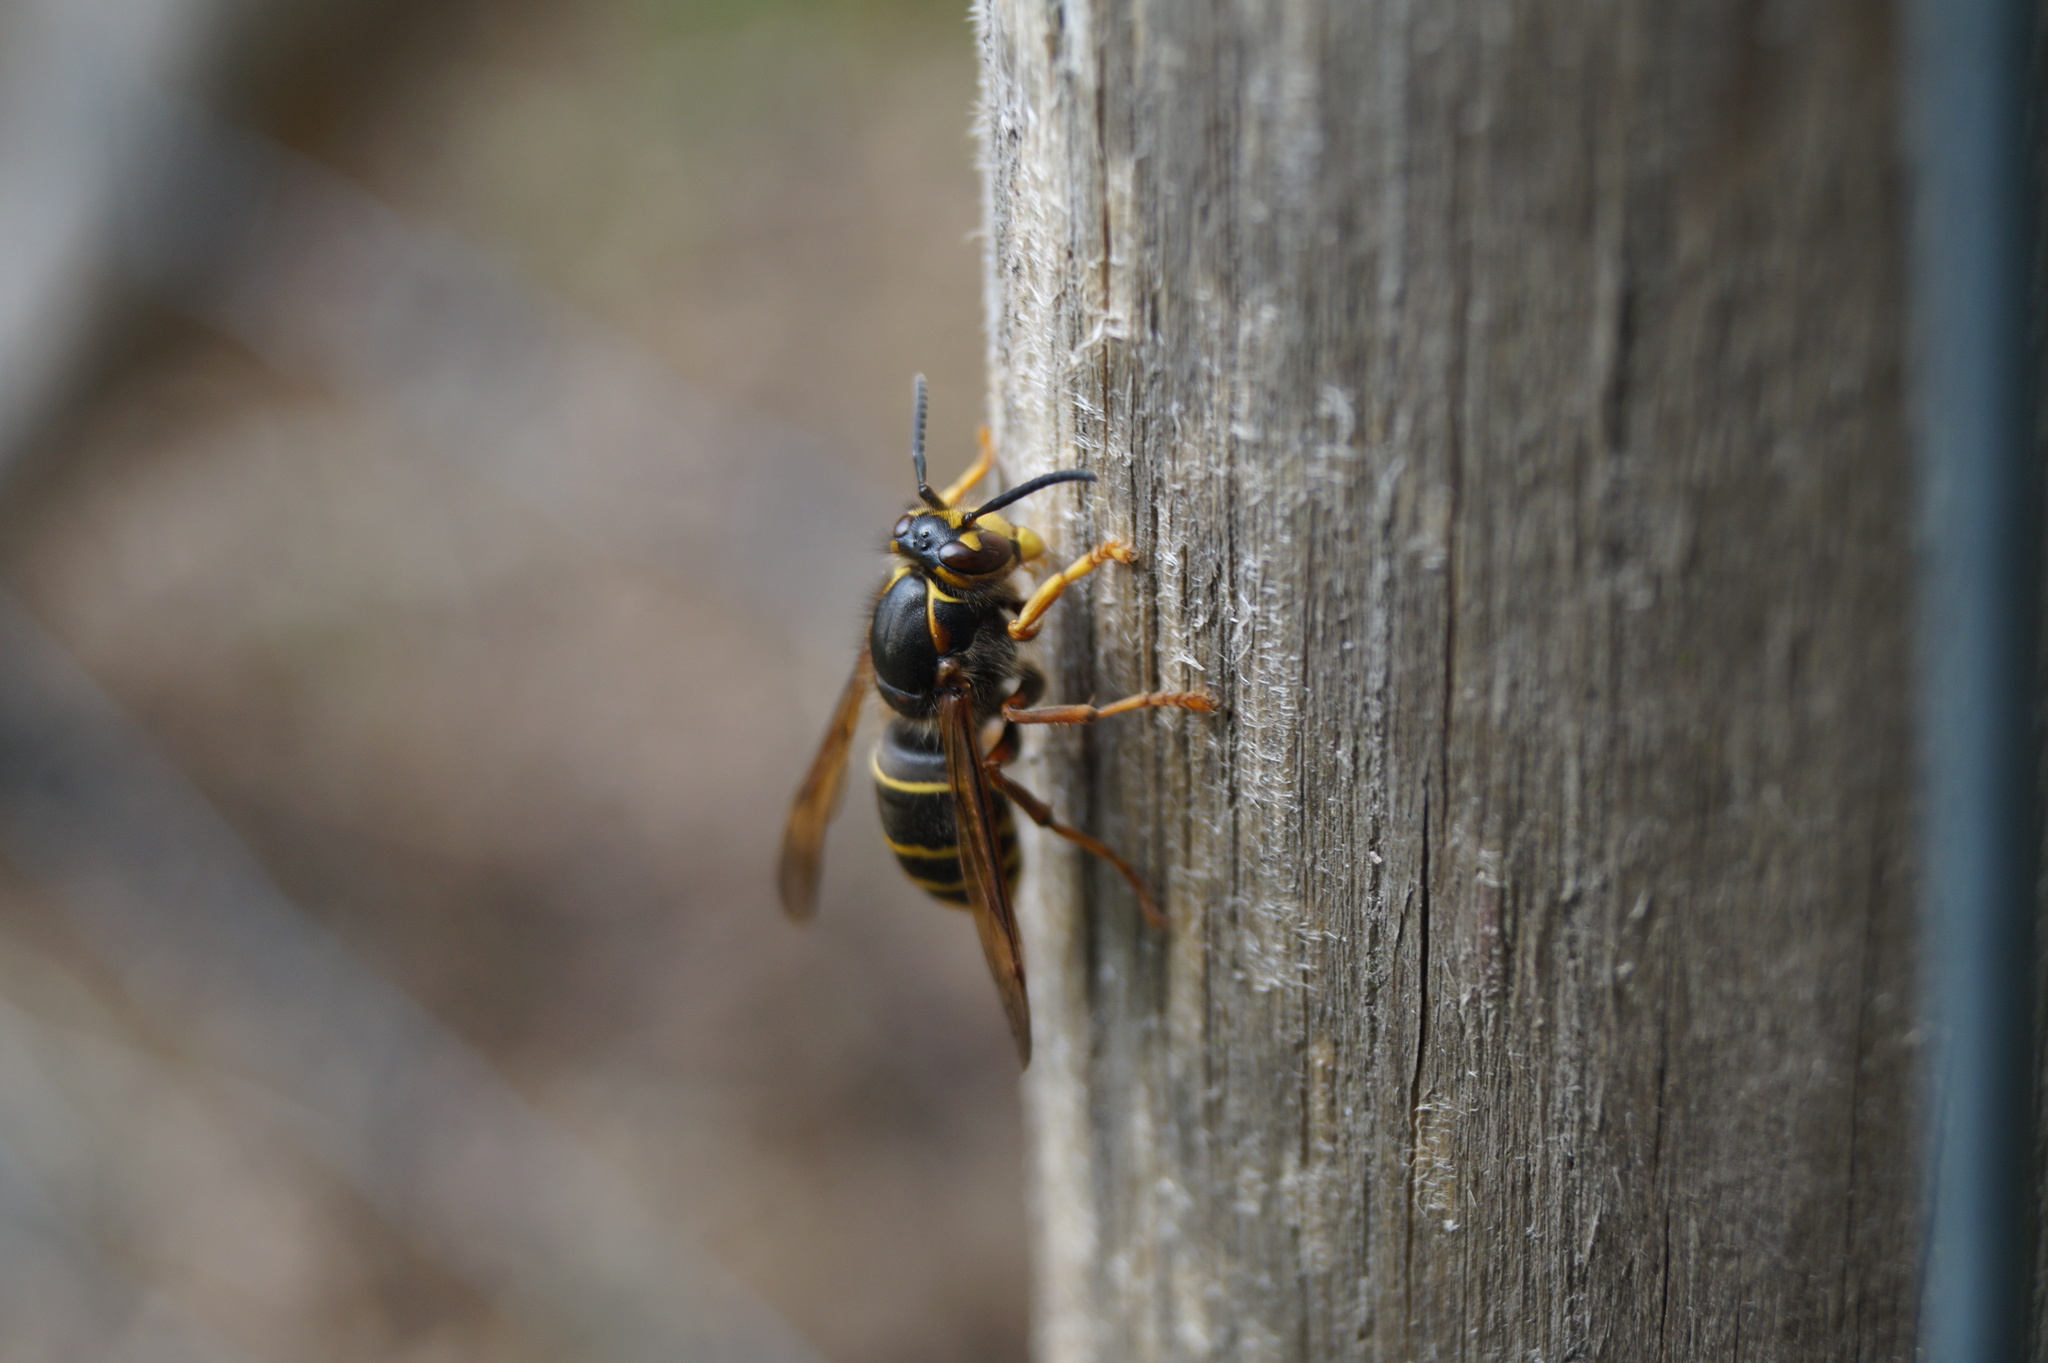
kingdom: Animalia
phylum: Arthropoda
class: Insecta
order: Hymenoptera
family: Vespidae
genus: Dolichovespula
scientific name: Dolichovespula media
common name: Median wasp
